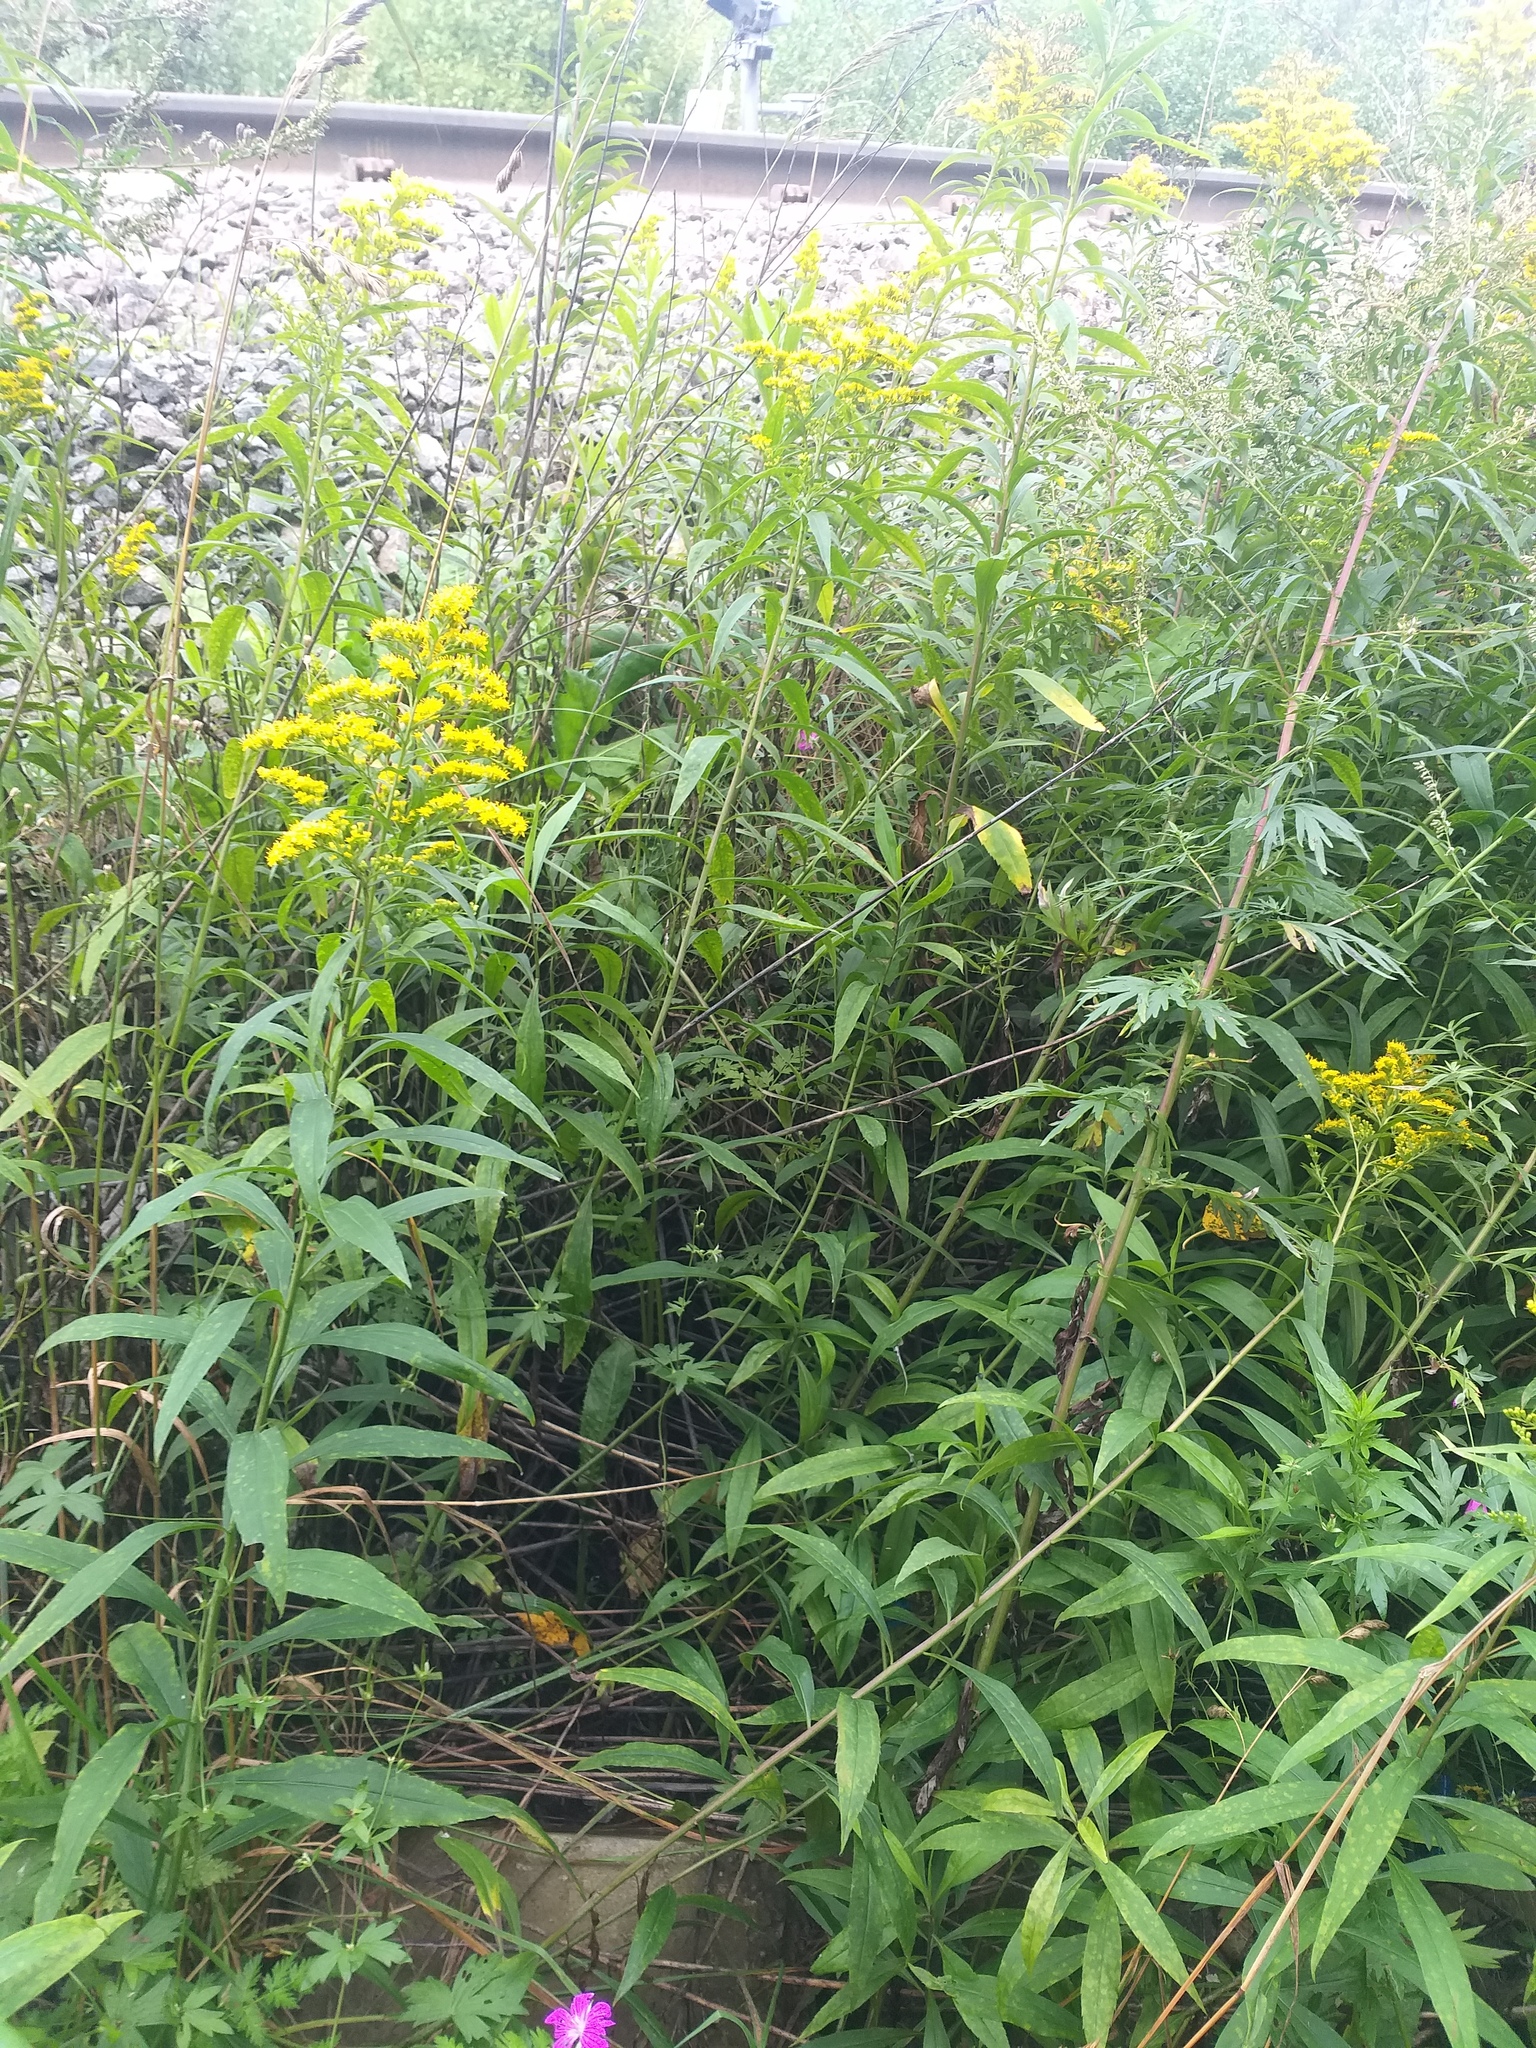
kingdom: Plantae
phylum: Tracheophyta
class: Magnoliopsida
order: Asterales
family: Asteraceae
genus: Solidago
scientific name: Solidago gigantea
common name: Giant goldenrod
